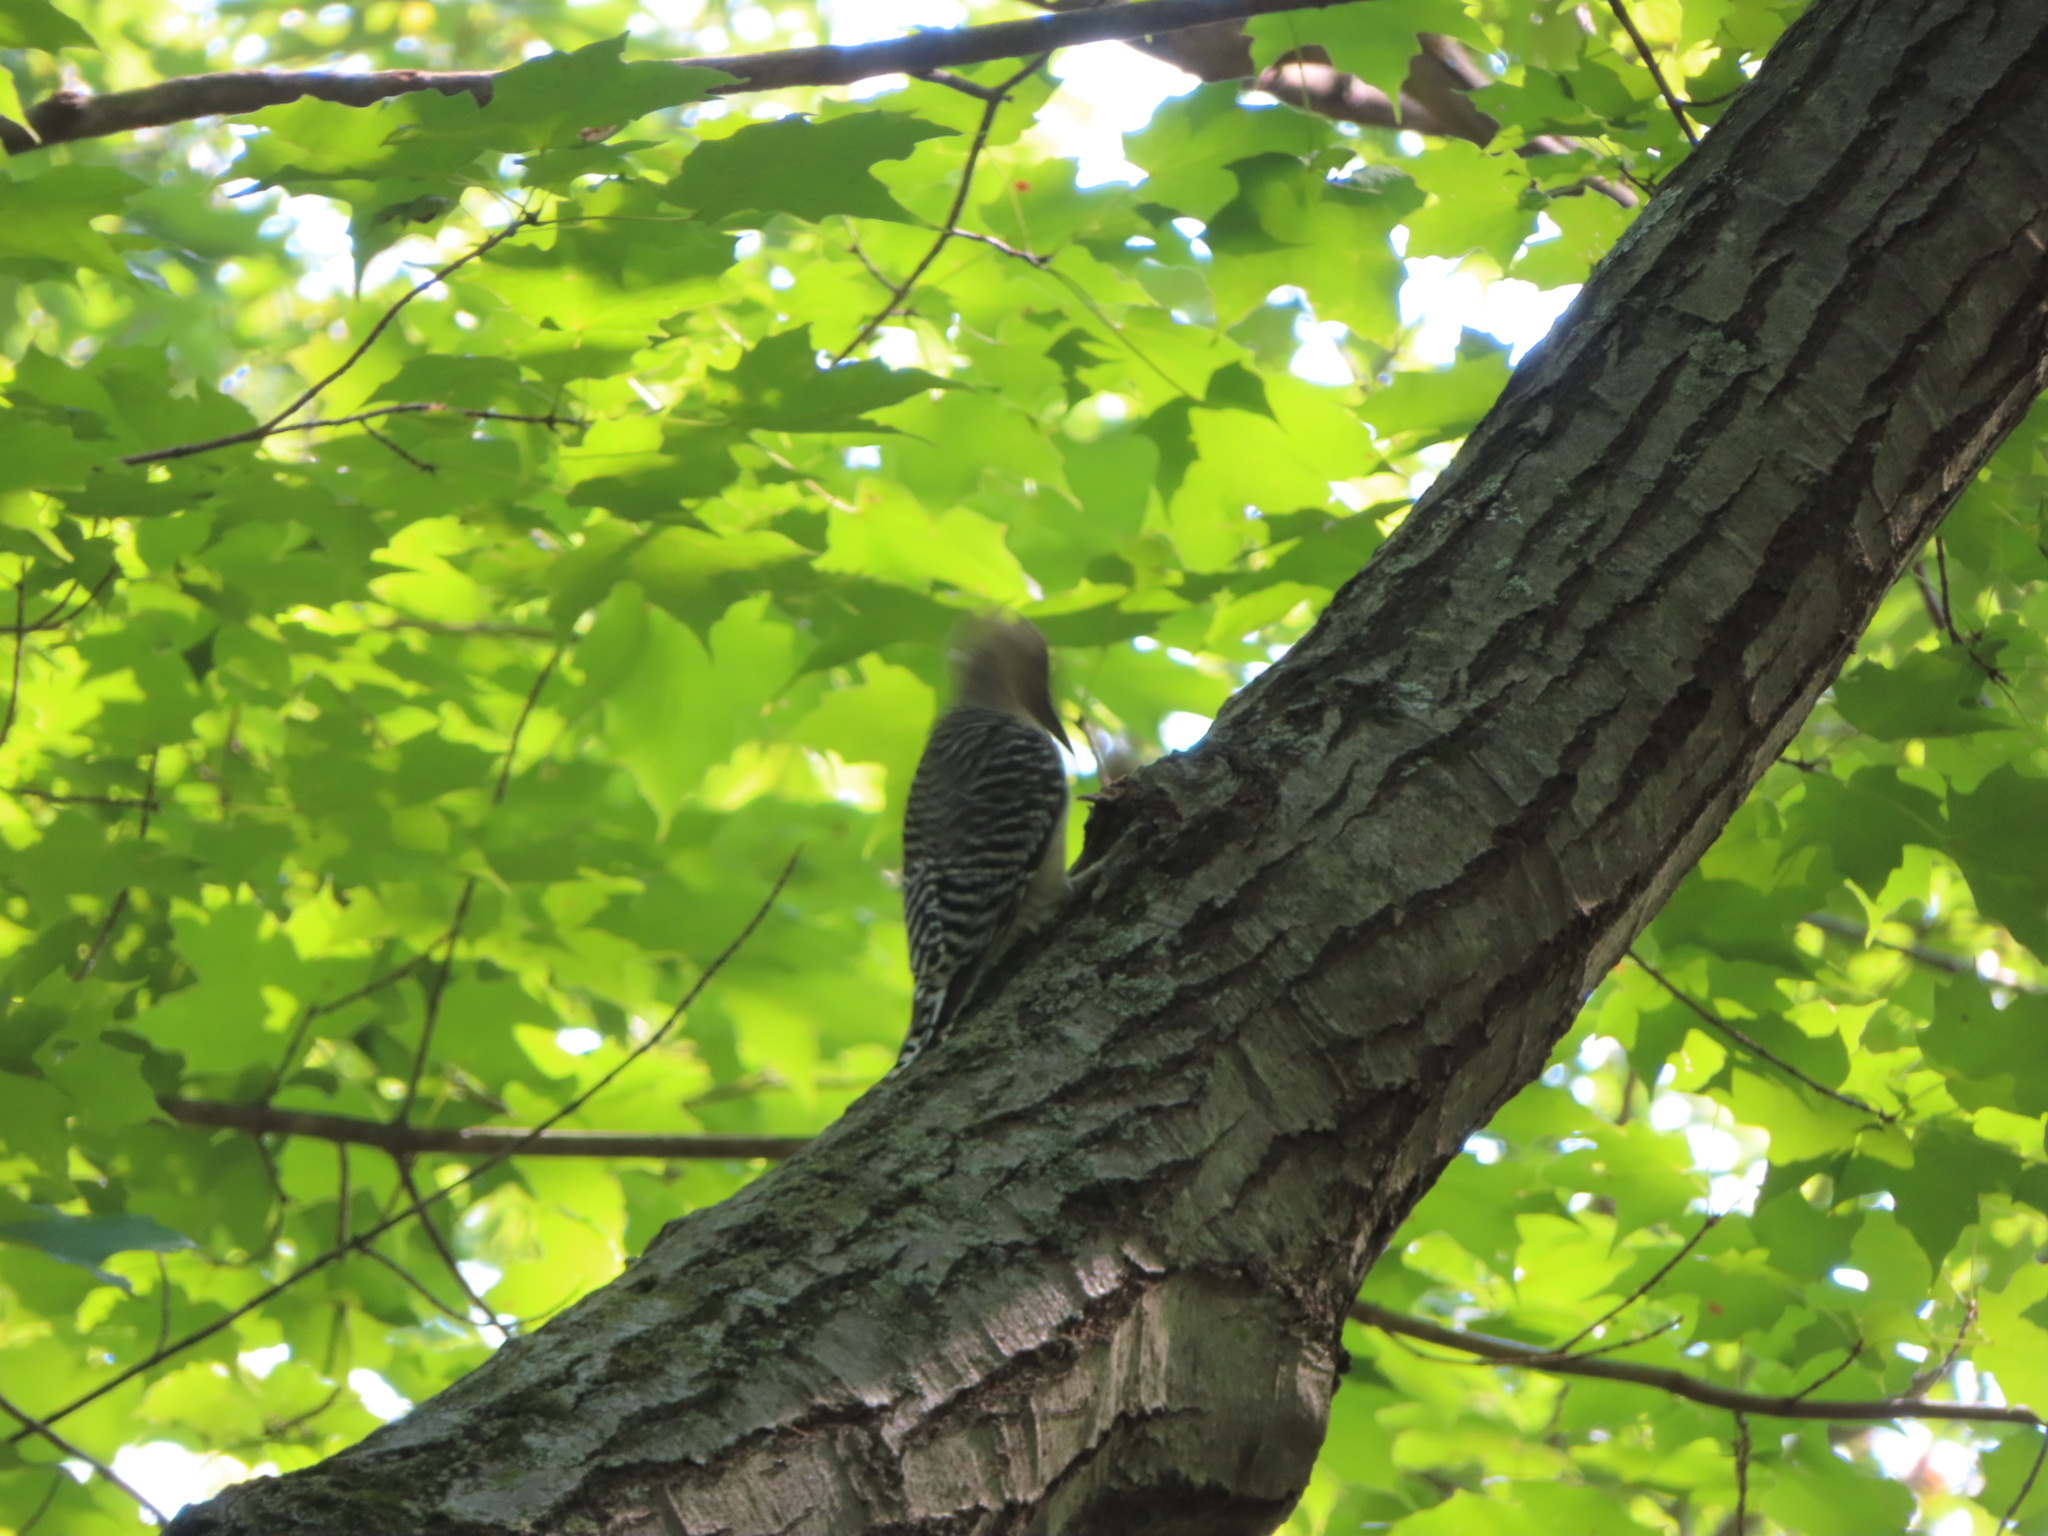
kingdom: Animalia
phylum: Chordata
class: Aves
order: Piciformes
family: Picidae
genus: Melanerpes
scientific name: Melanerpes carolinus
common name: Red-bellied woodpecker
